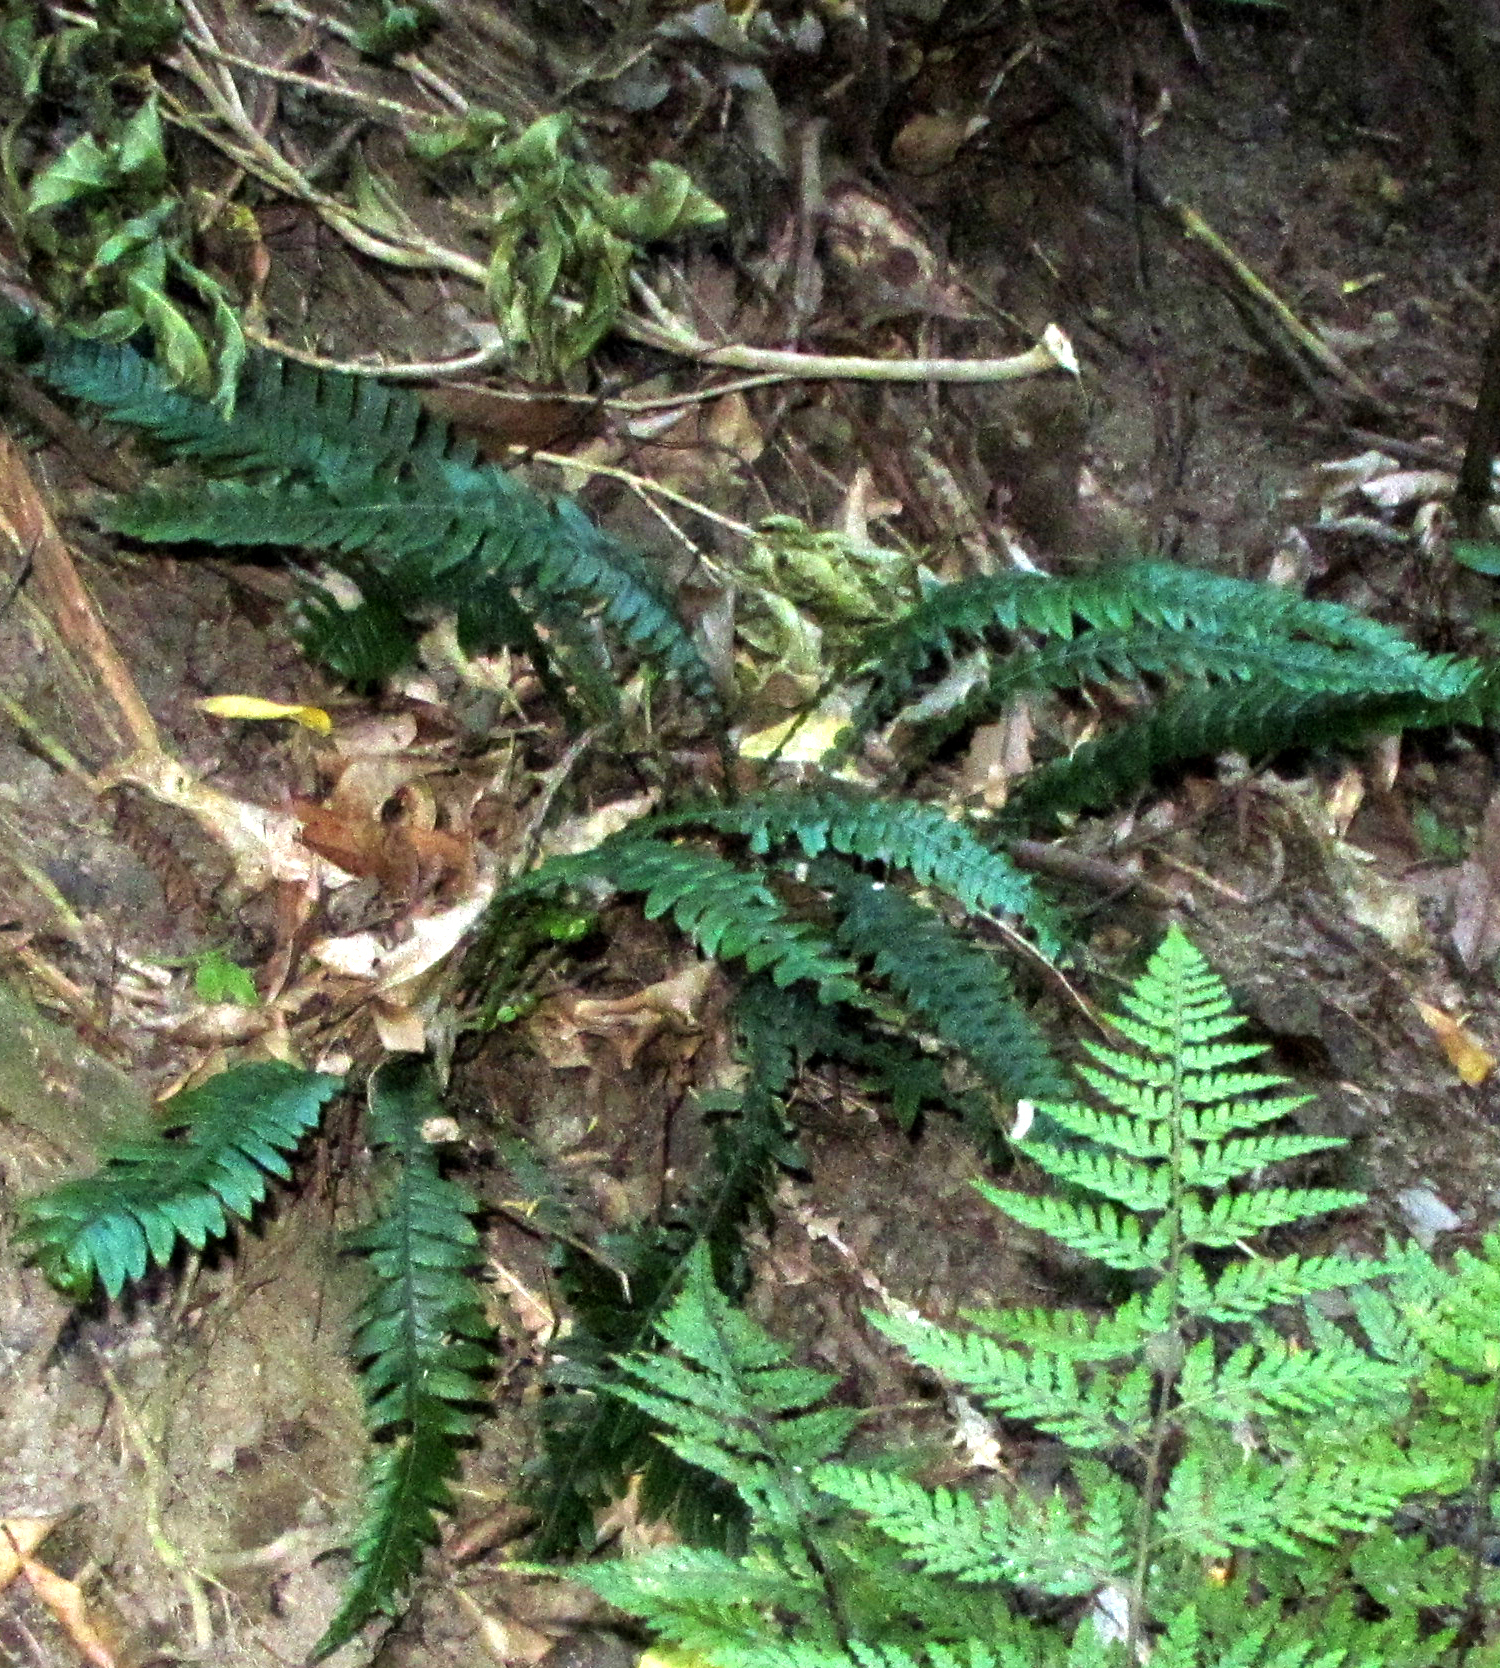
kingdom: Plantae
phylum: Tracheophyta
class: Polypodiopsida
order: Polypodiales
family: Blechnaceae
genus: Austroblechnum
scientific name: Austroblechnum lanceolatum
